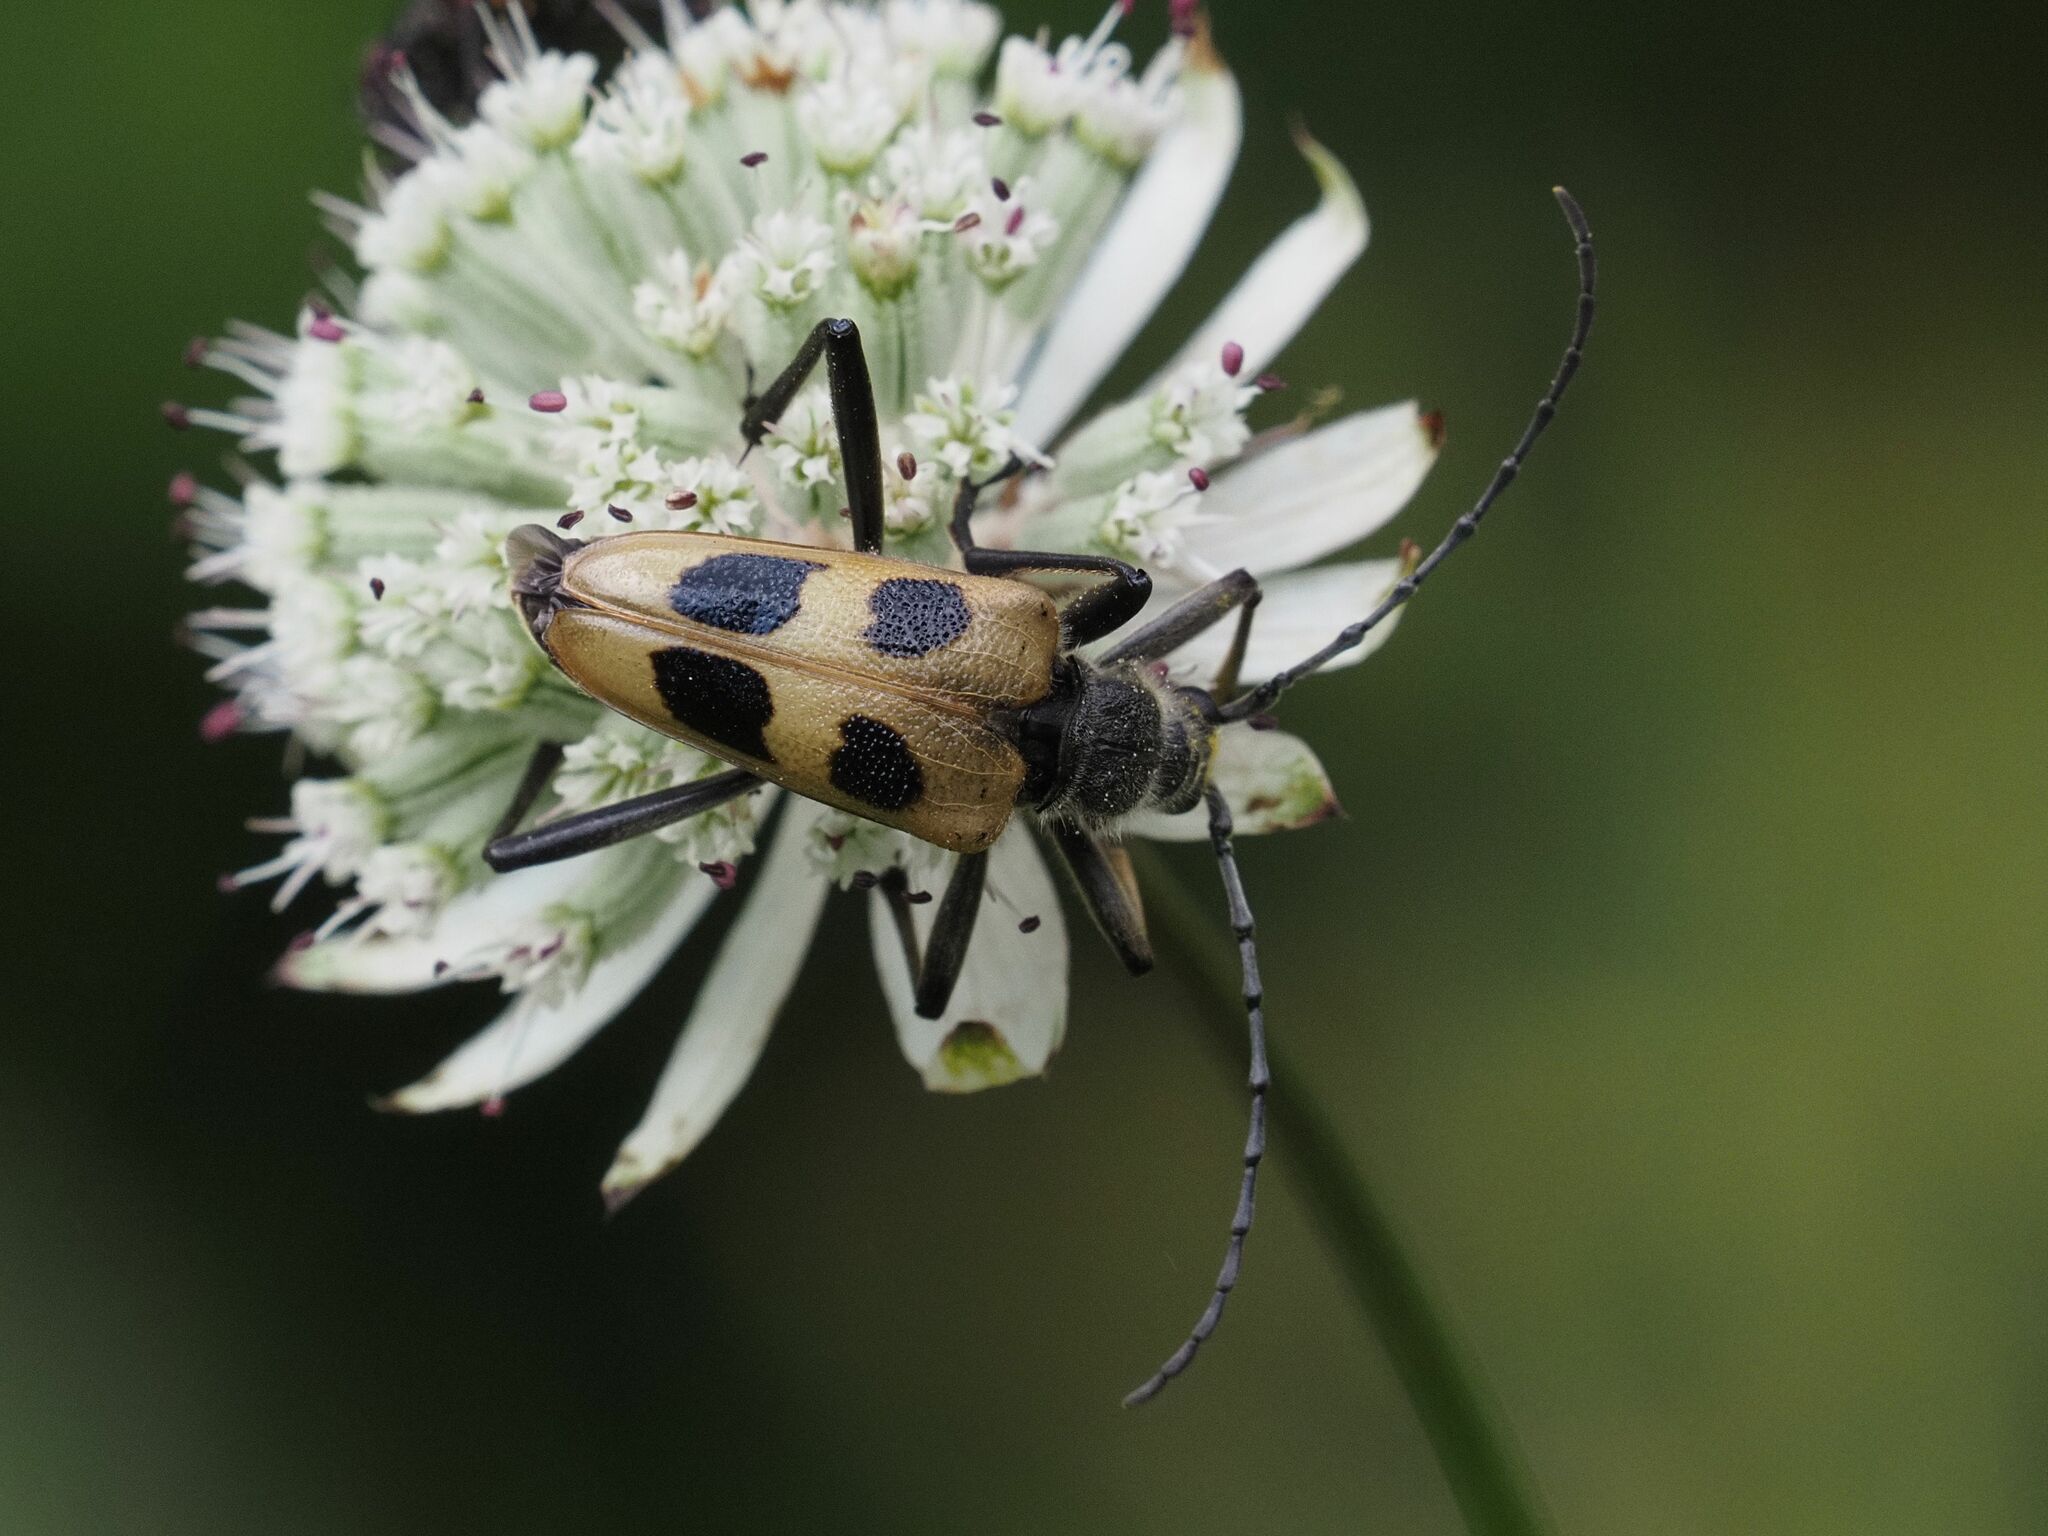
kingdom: Animalia
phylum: Arthropoda
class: Insecta
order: Coleoptera
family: Cerambycidae
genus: Pachyta
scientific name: Pachyta quadrimaculata
